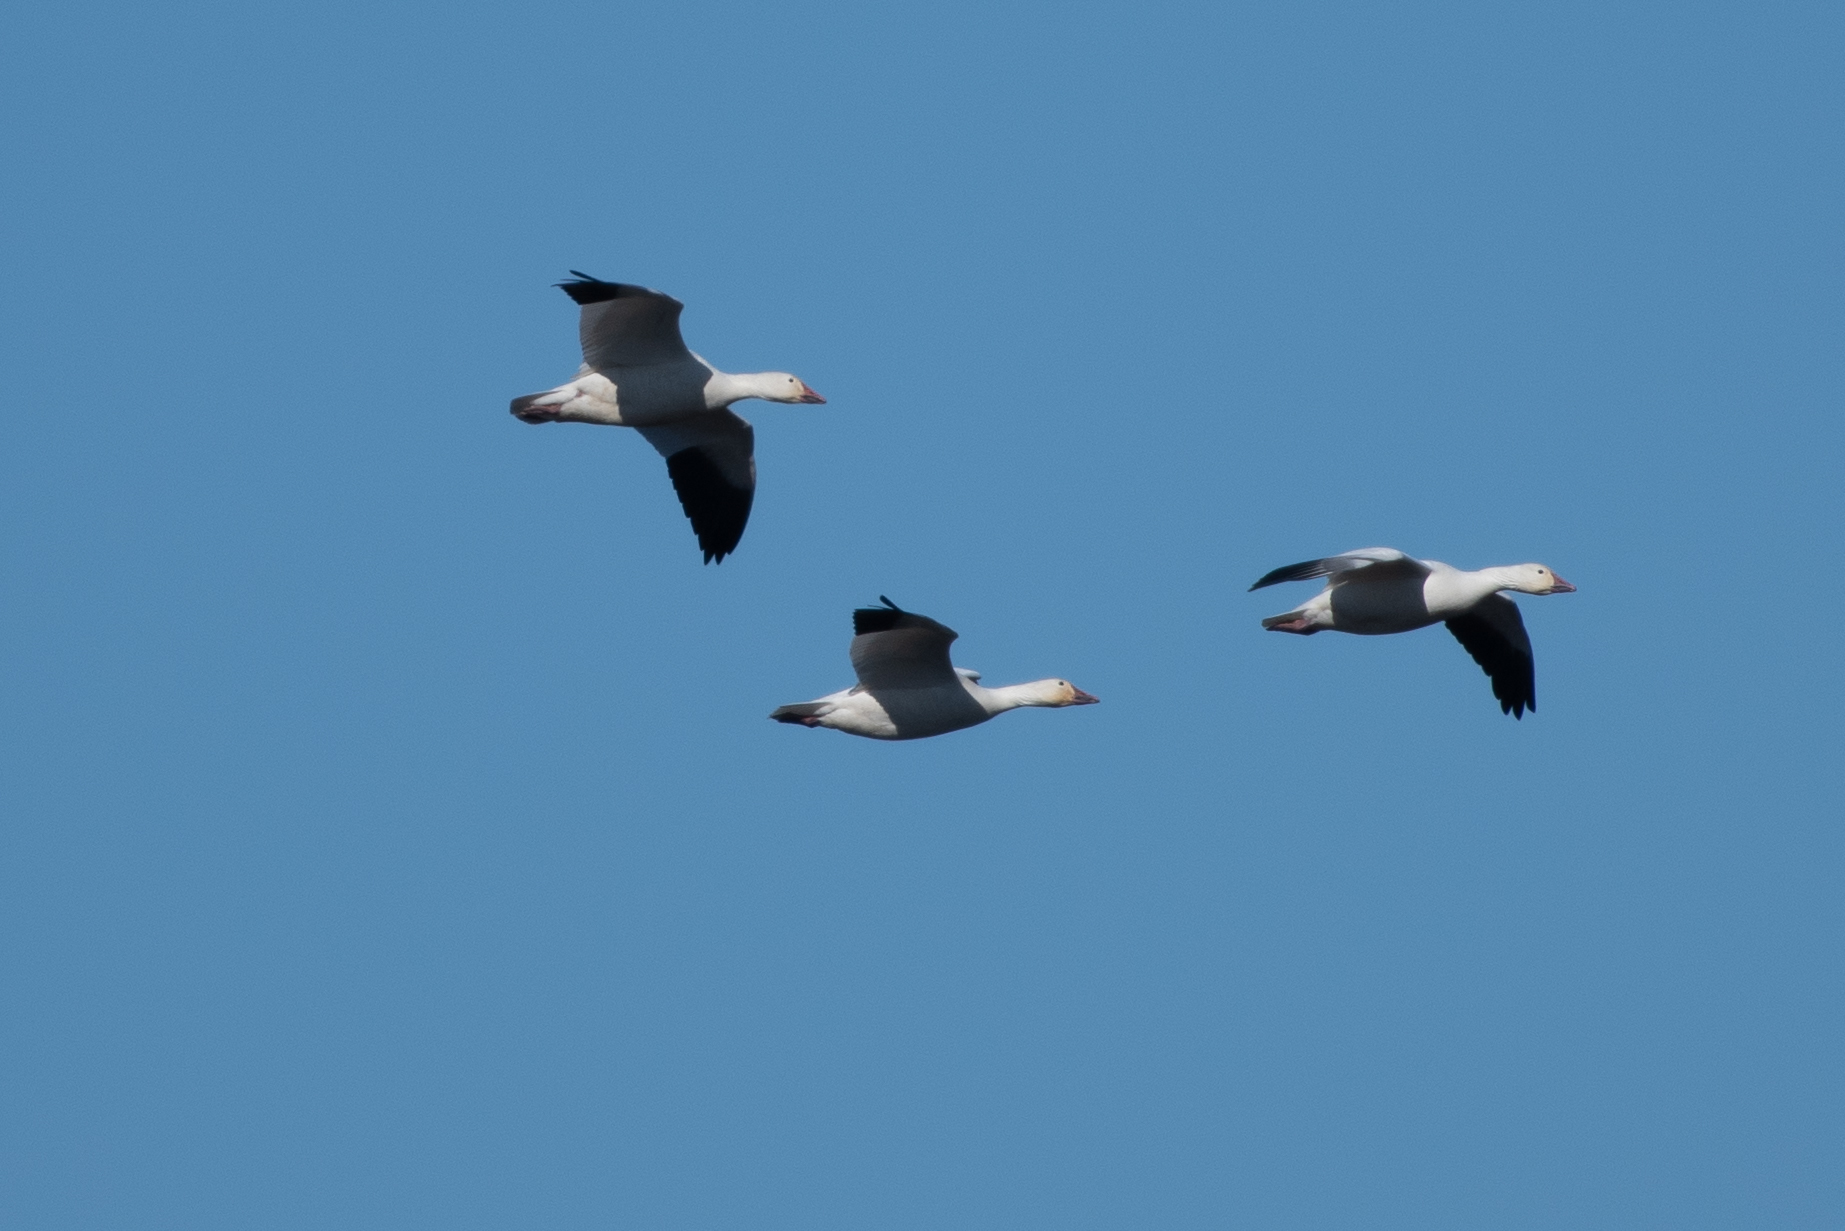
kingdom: Animalia
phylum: Chordata
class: Aves
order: Anseriformes
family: Anatidae
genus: Anser
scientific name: Anser caerulescens
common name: Snow goose
